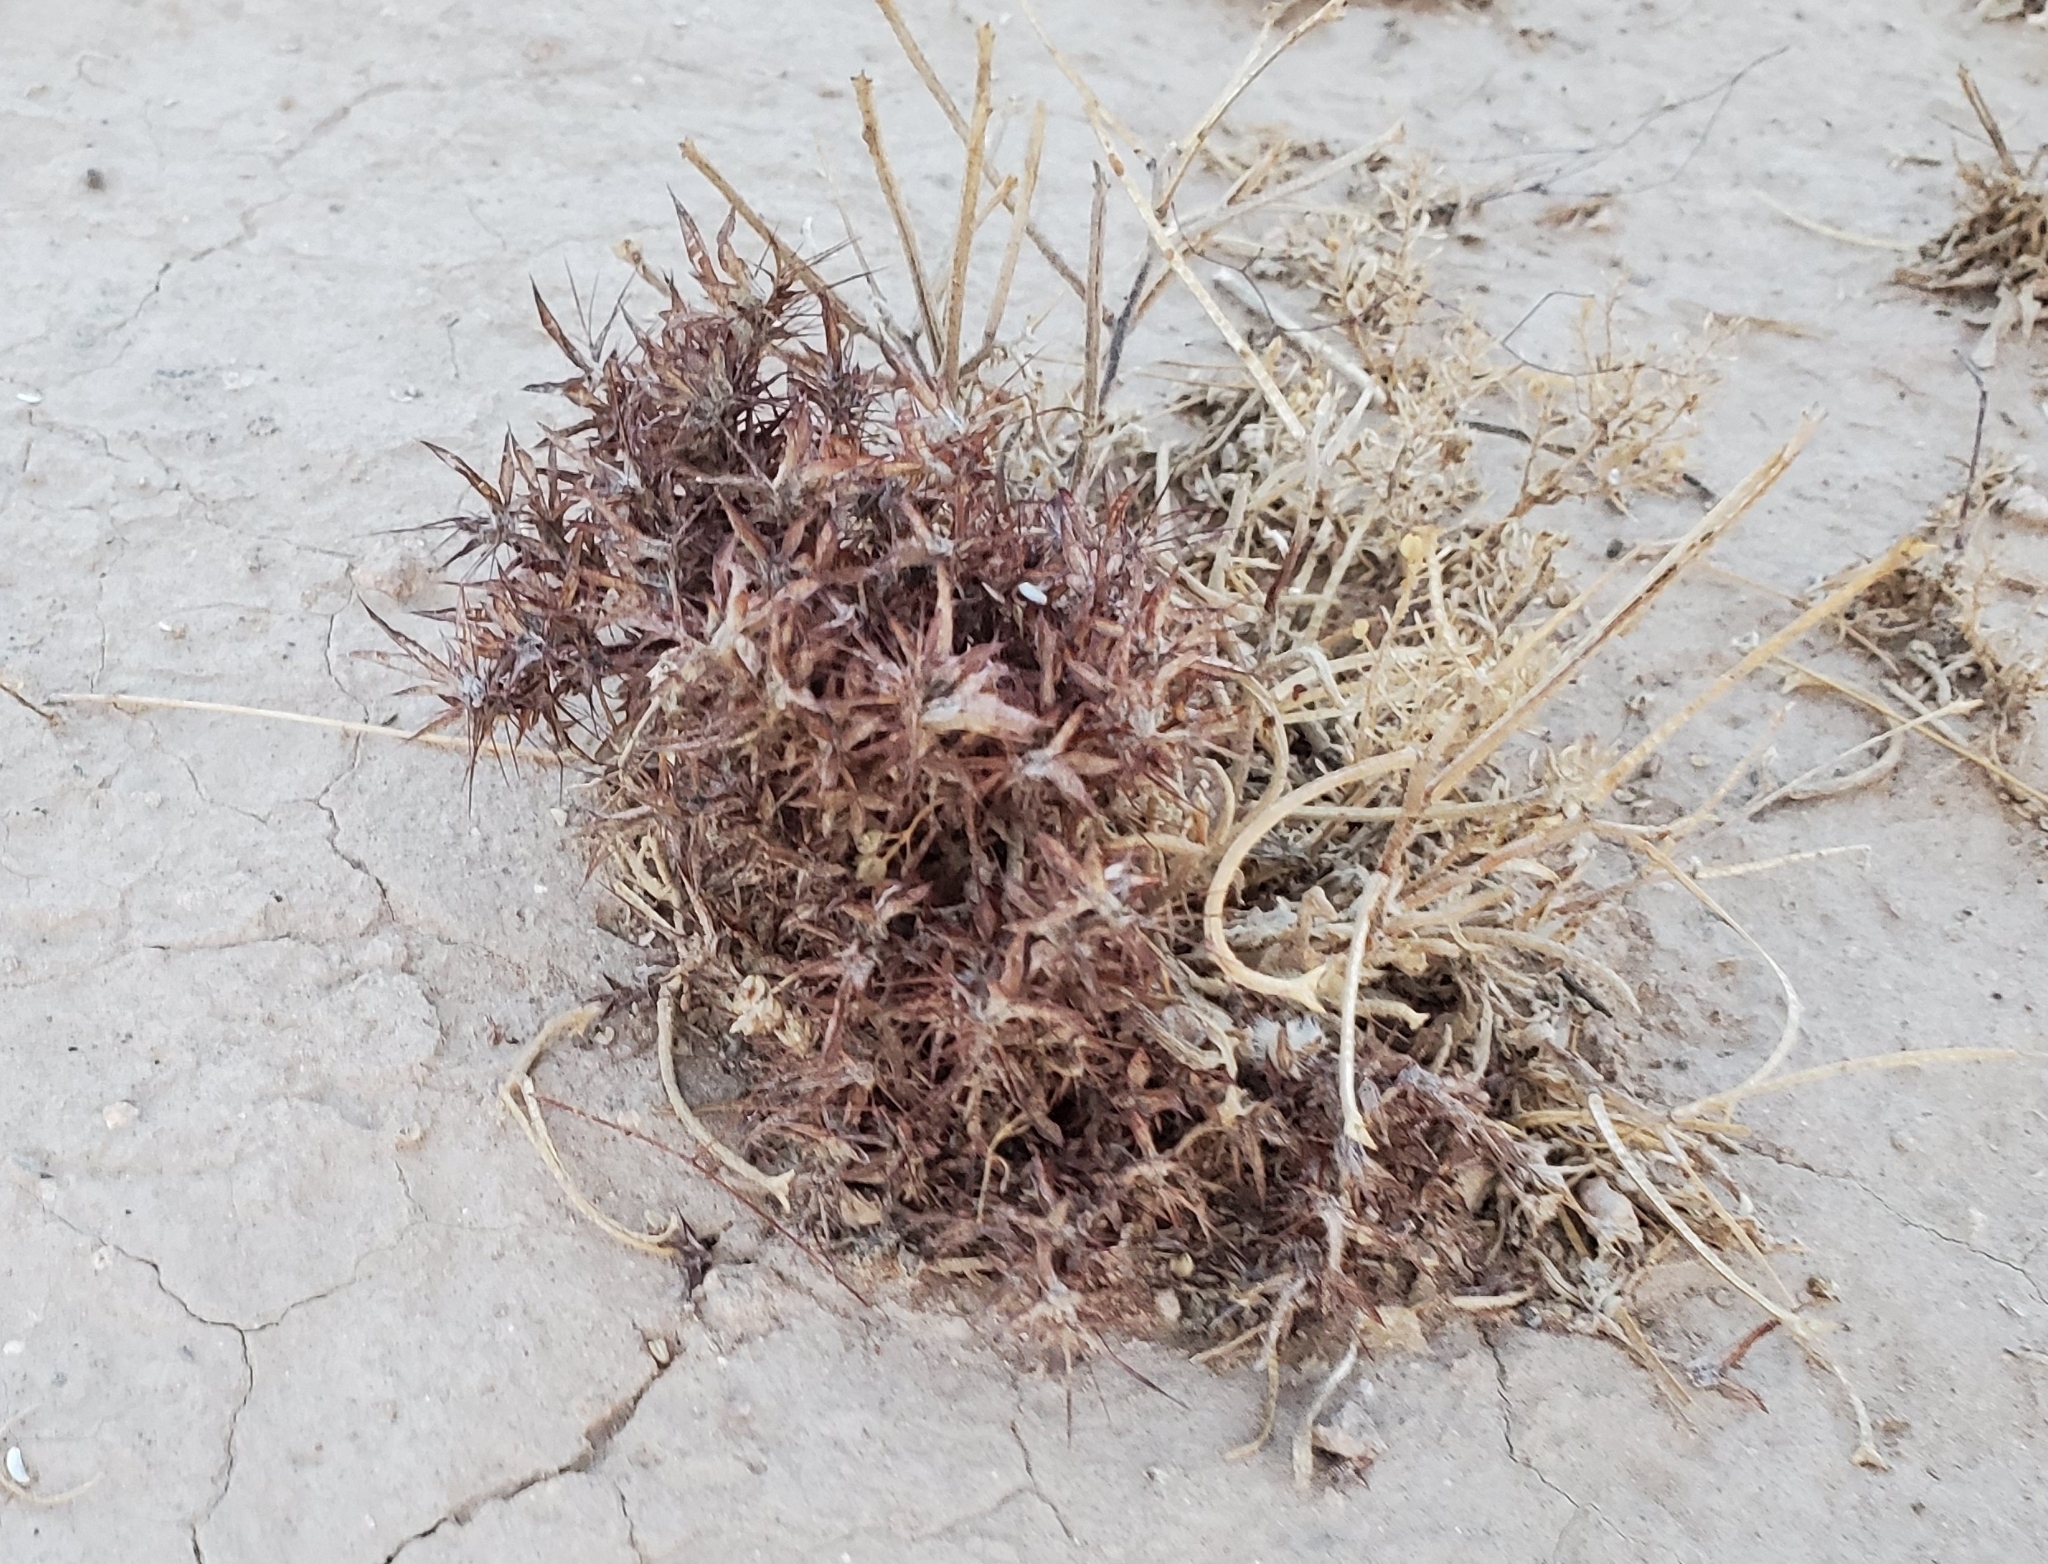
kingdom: Plantae
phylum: Tracheophyta
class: Magnoliopsida
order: Caryophyllales
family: Polygonaceae
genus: Chorizanthe
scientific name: Chorizanthe rigida
